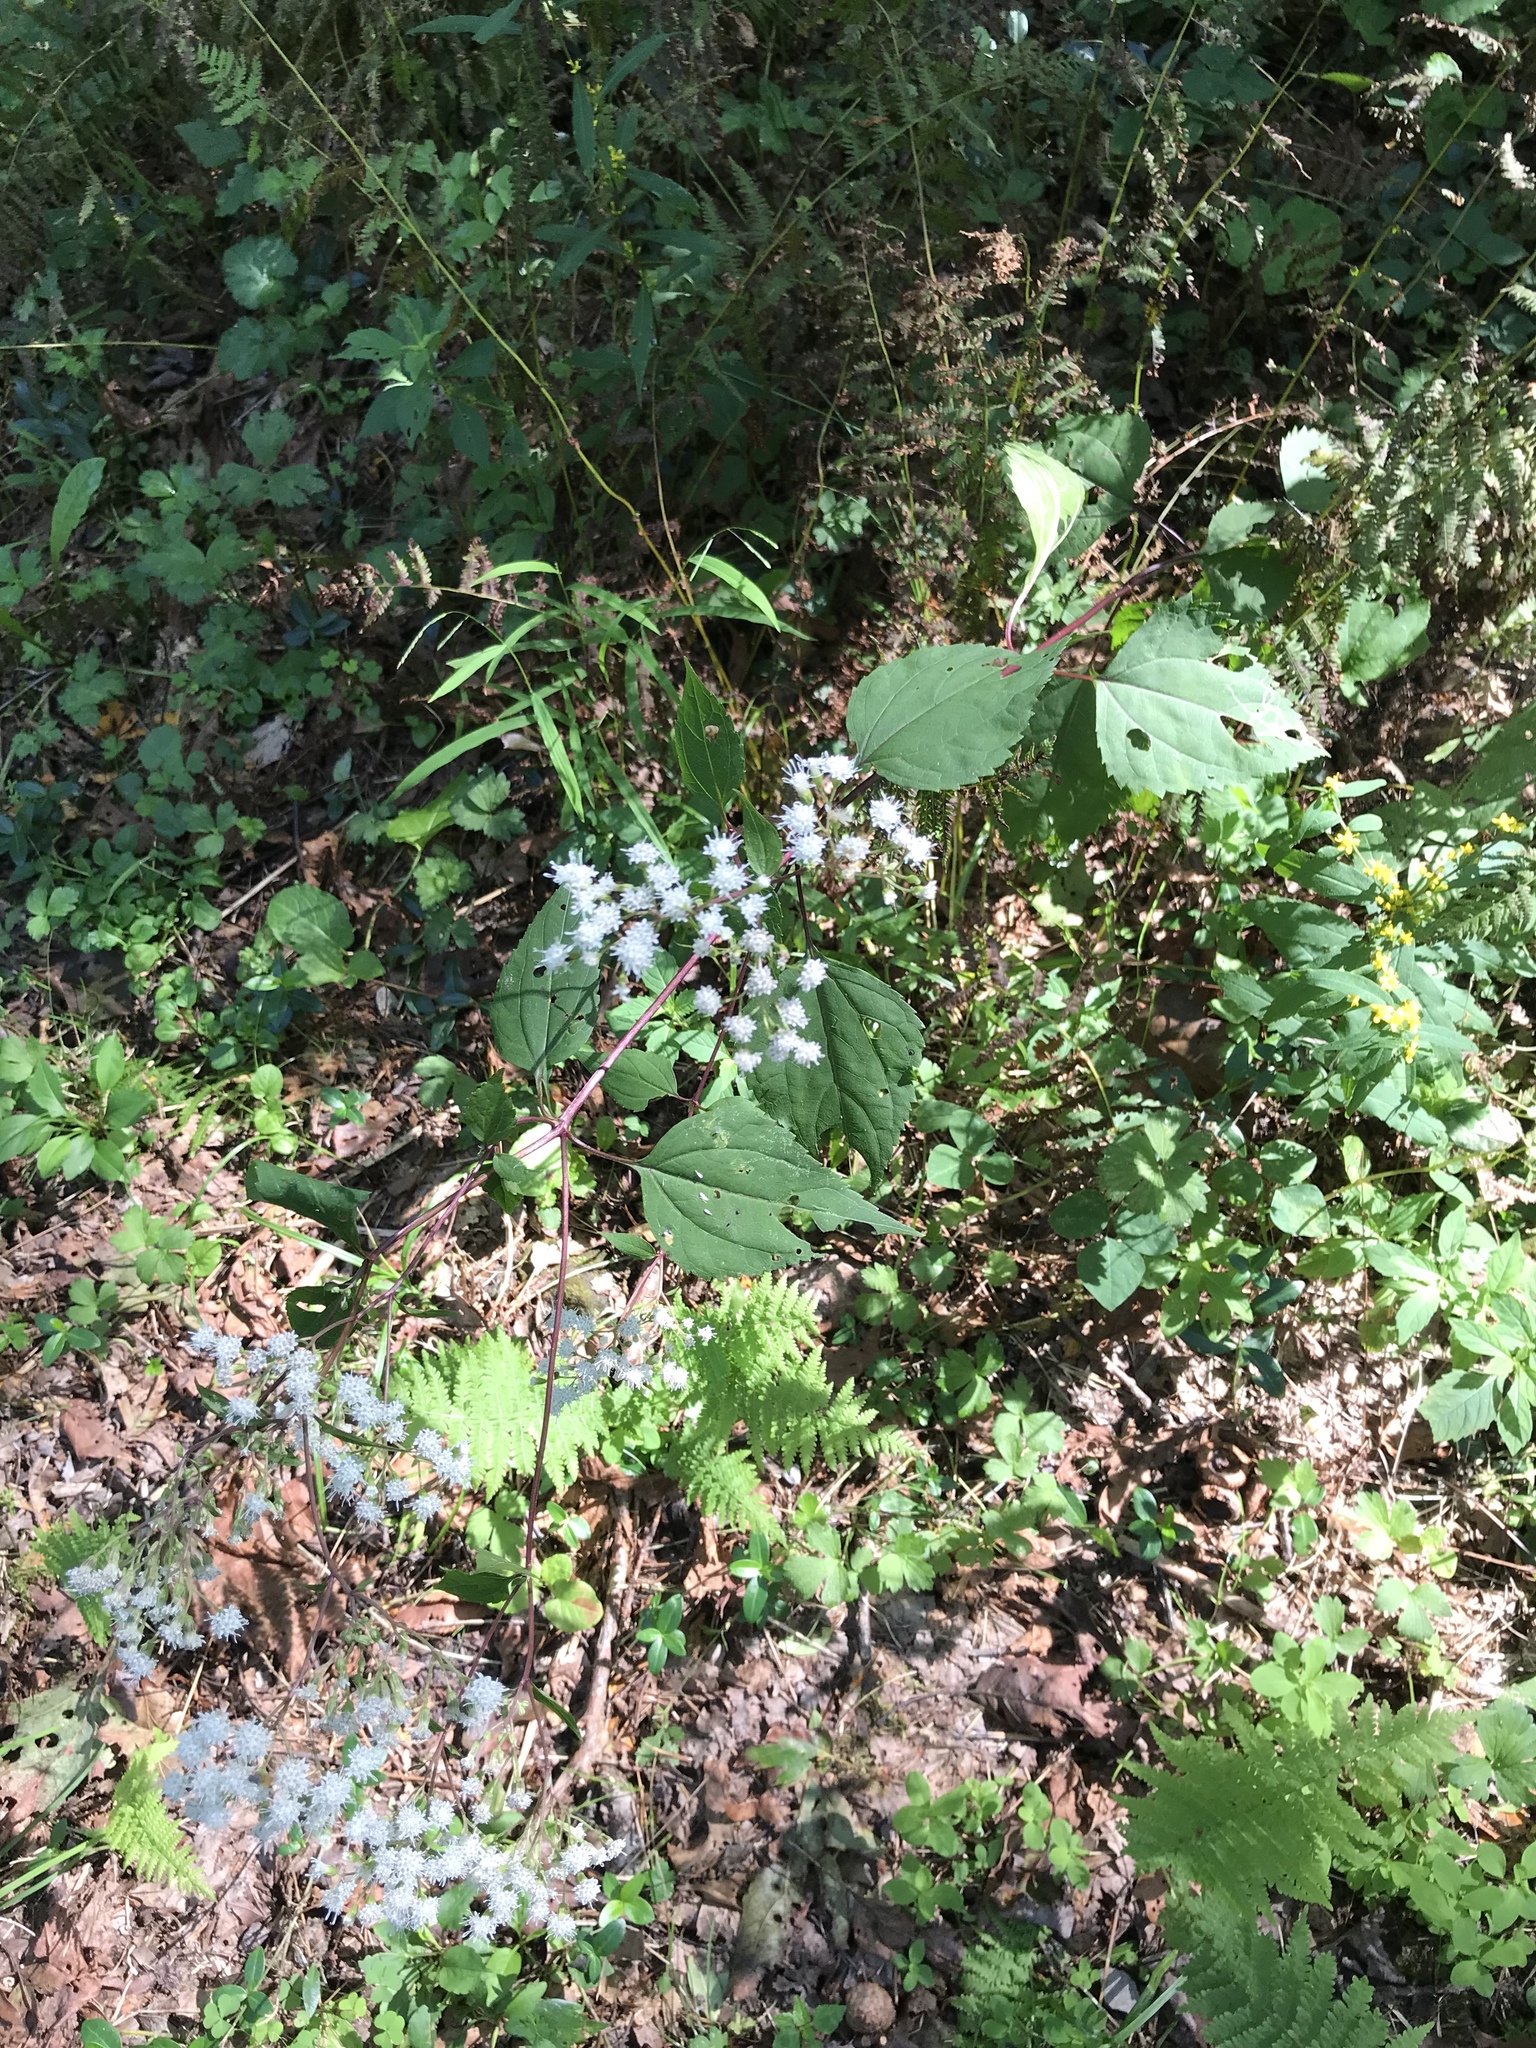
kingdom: Plantae
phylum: Tracheophyta
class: Magnoliopsida
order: Asterales
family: Asteraceae
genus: Ageratina
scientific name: Ageratina altissima
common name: White snakeroot
